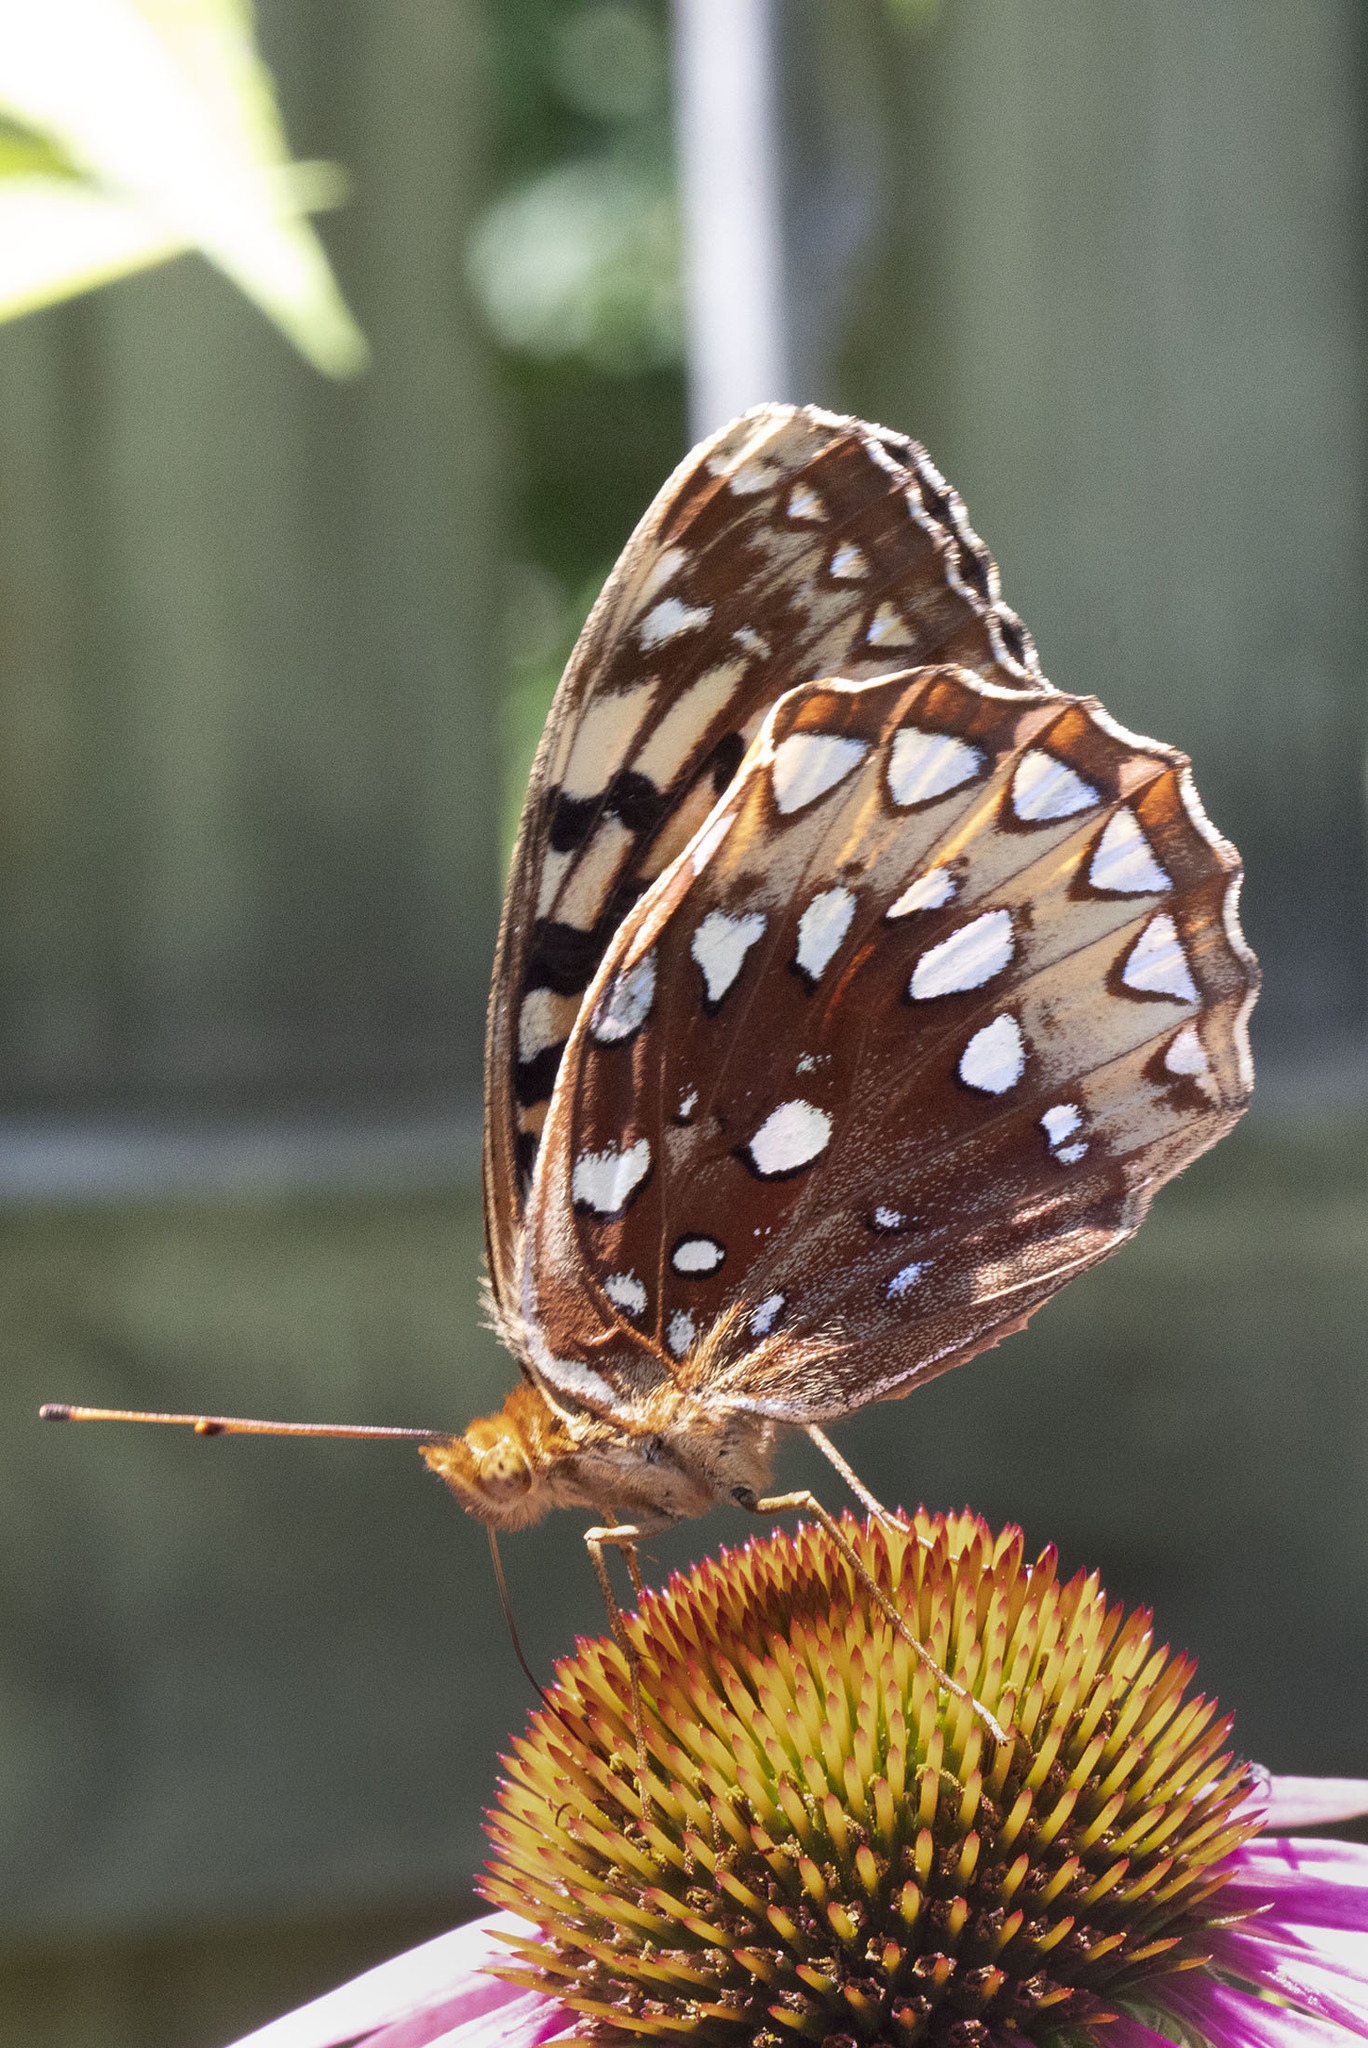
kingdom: Animalia
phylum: Arthropoda
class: Insecta
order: Lepidoptera
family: Nymphalidae
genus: Speyeria
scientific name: Speyeria cybele
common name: Great spangled fritillary
